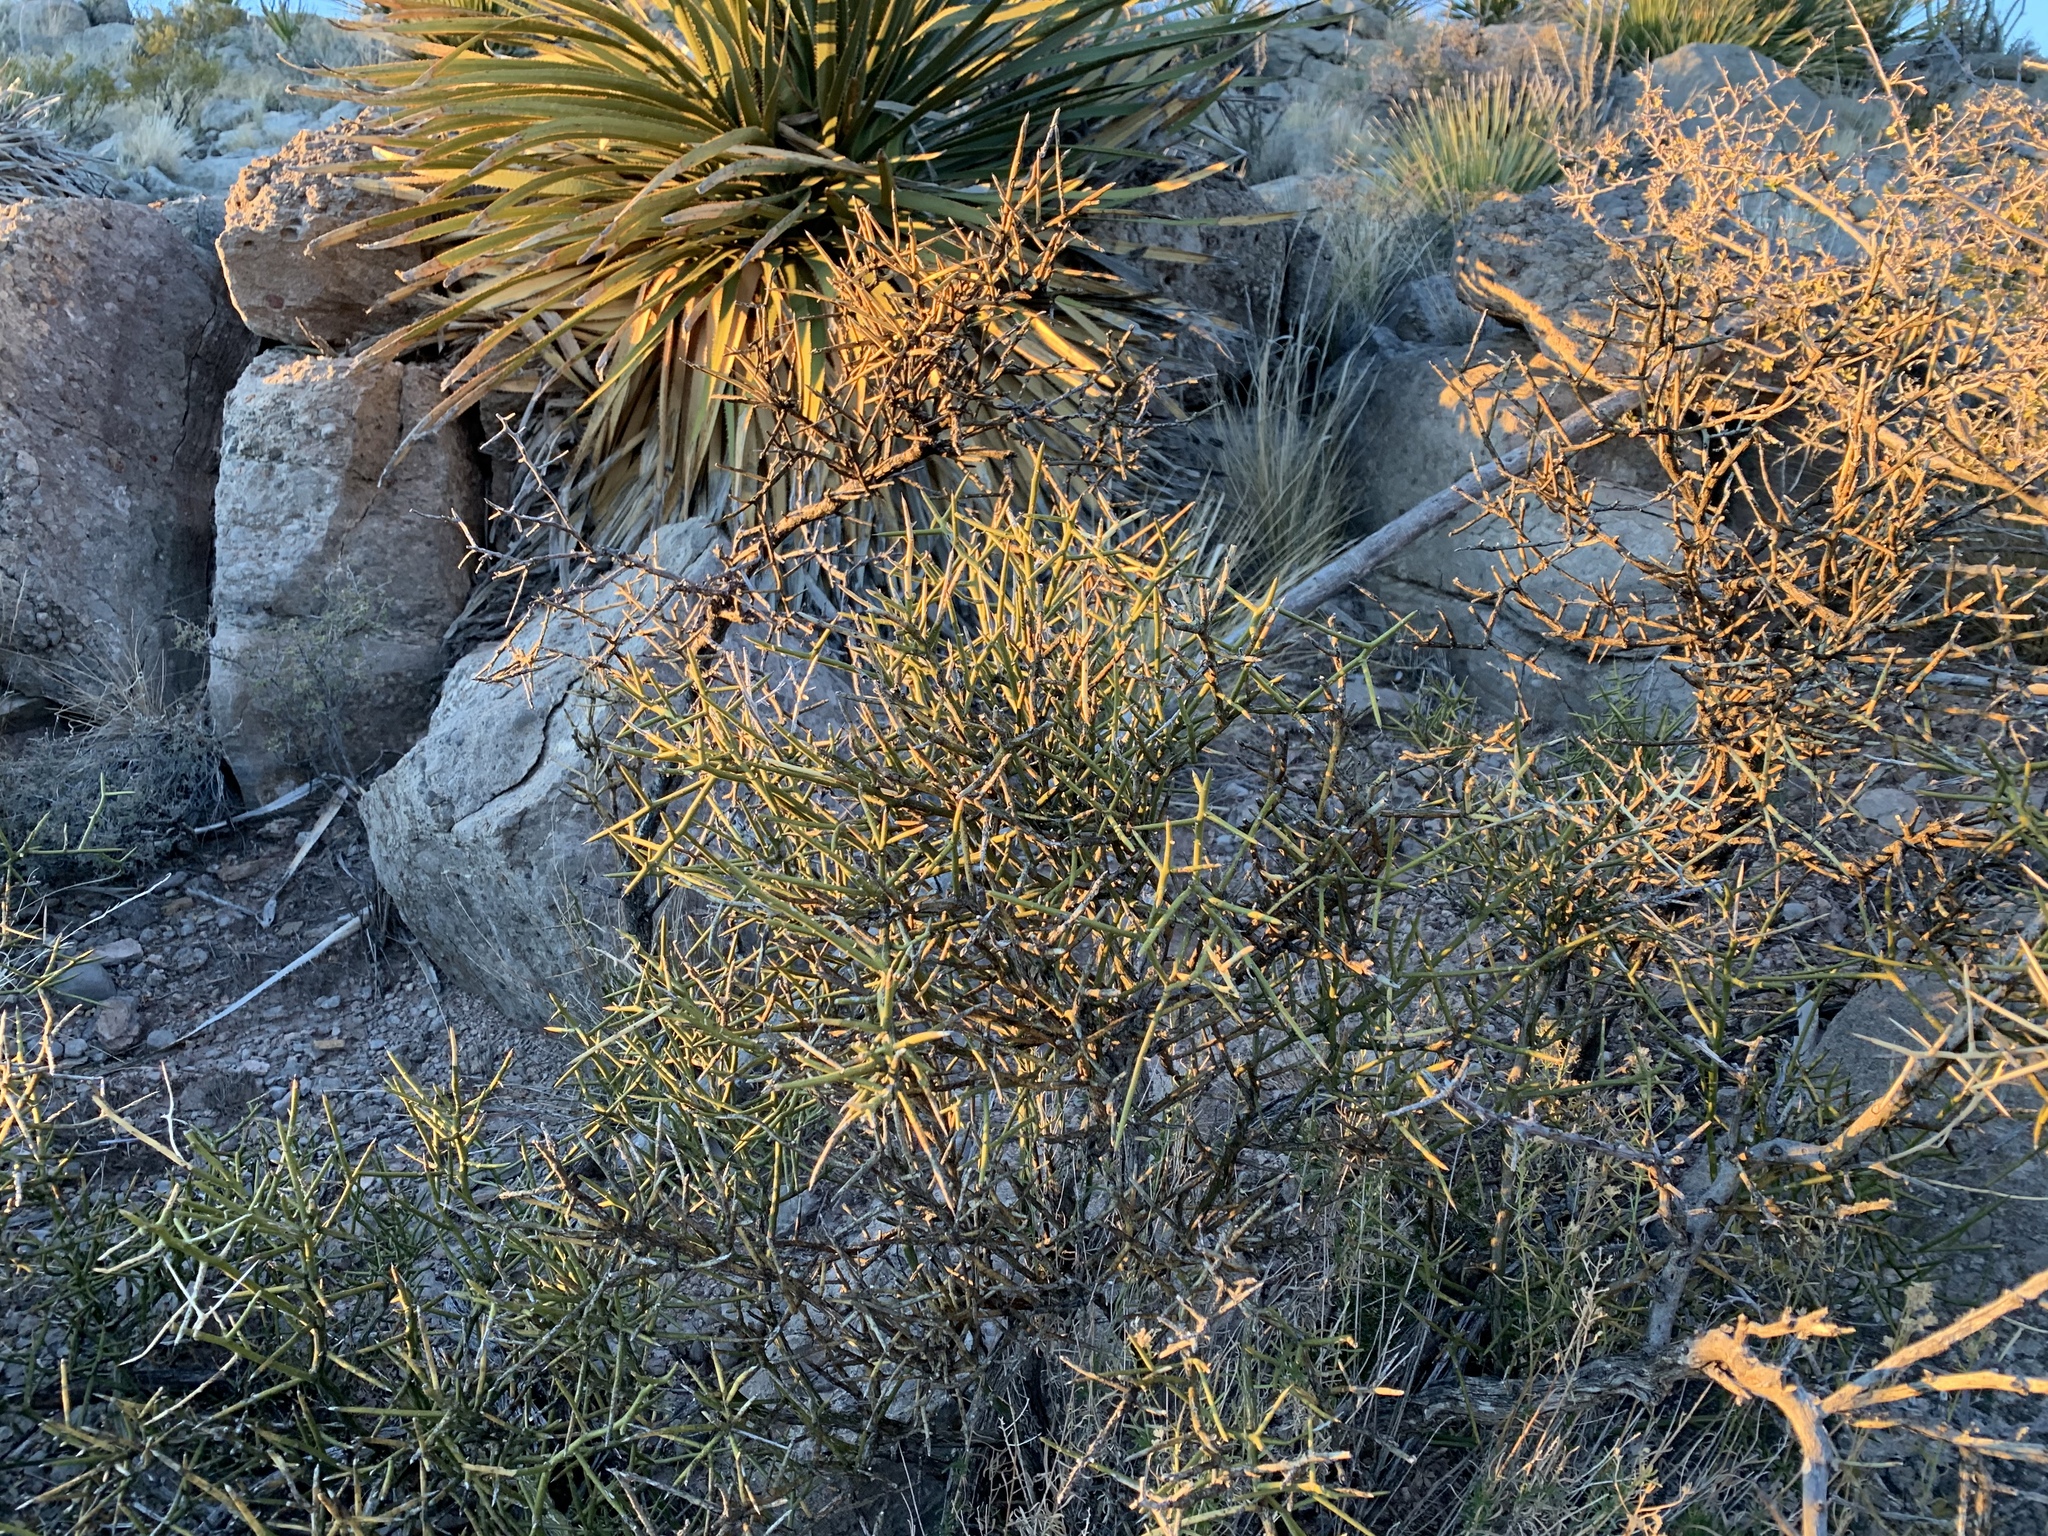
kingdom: Plantae
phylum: Tracheophyta
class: Magnoliopsida
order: Brassicales
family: Koeberliniaceae
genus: Koeberlinia
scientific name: Koeberlinia spinosa
